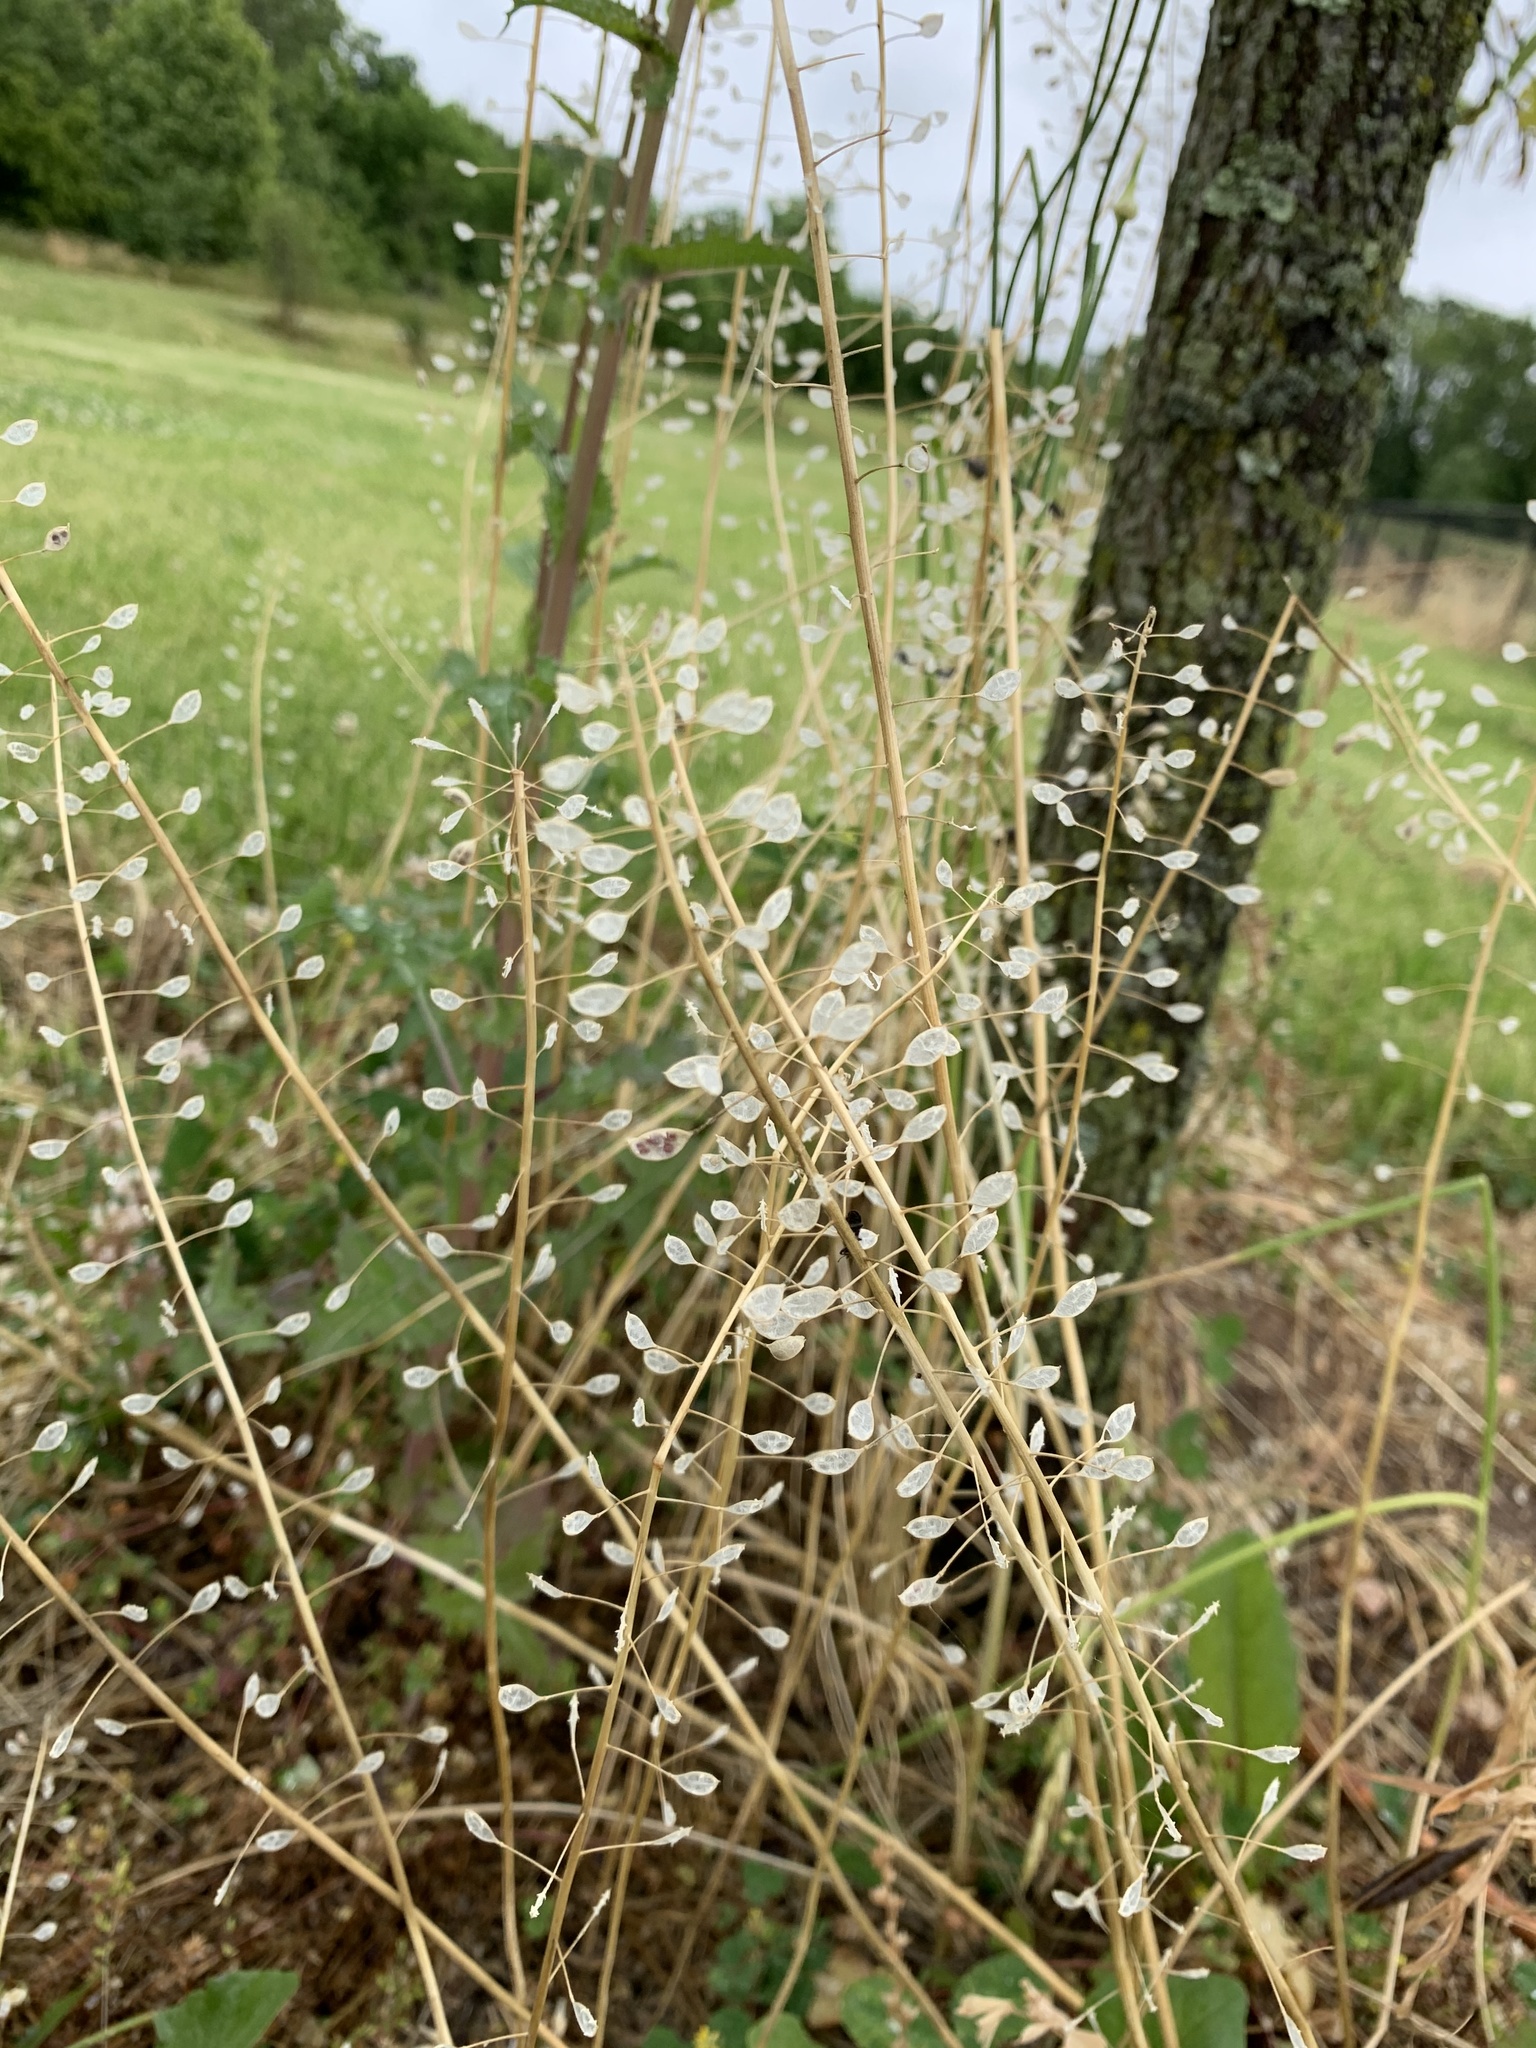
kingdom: Plantae
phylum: Tracheophyta
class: Magnoliopsida
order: Brassicales
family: Brassicaceae
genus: Mummenhoffia
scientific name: Mummenhoffia alliacea
